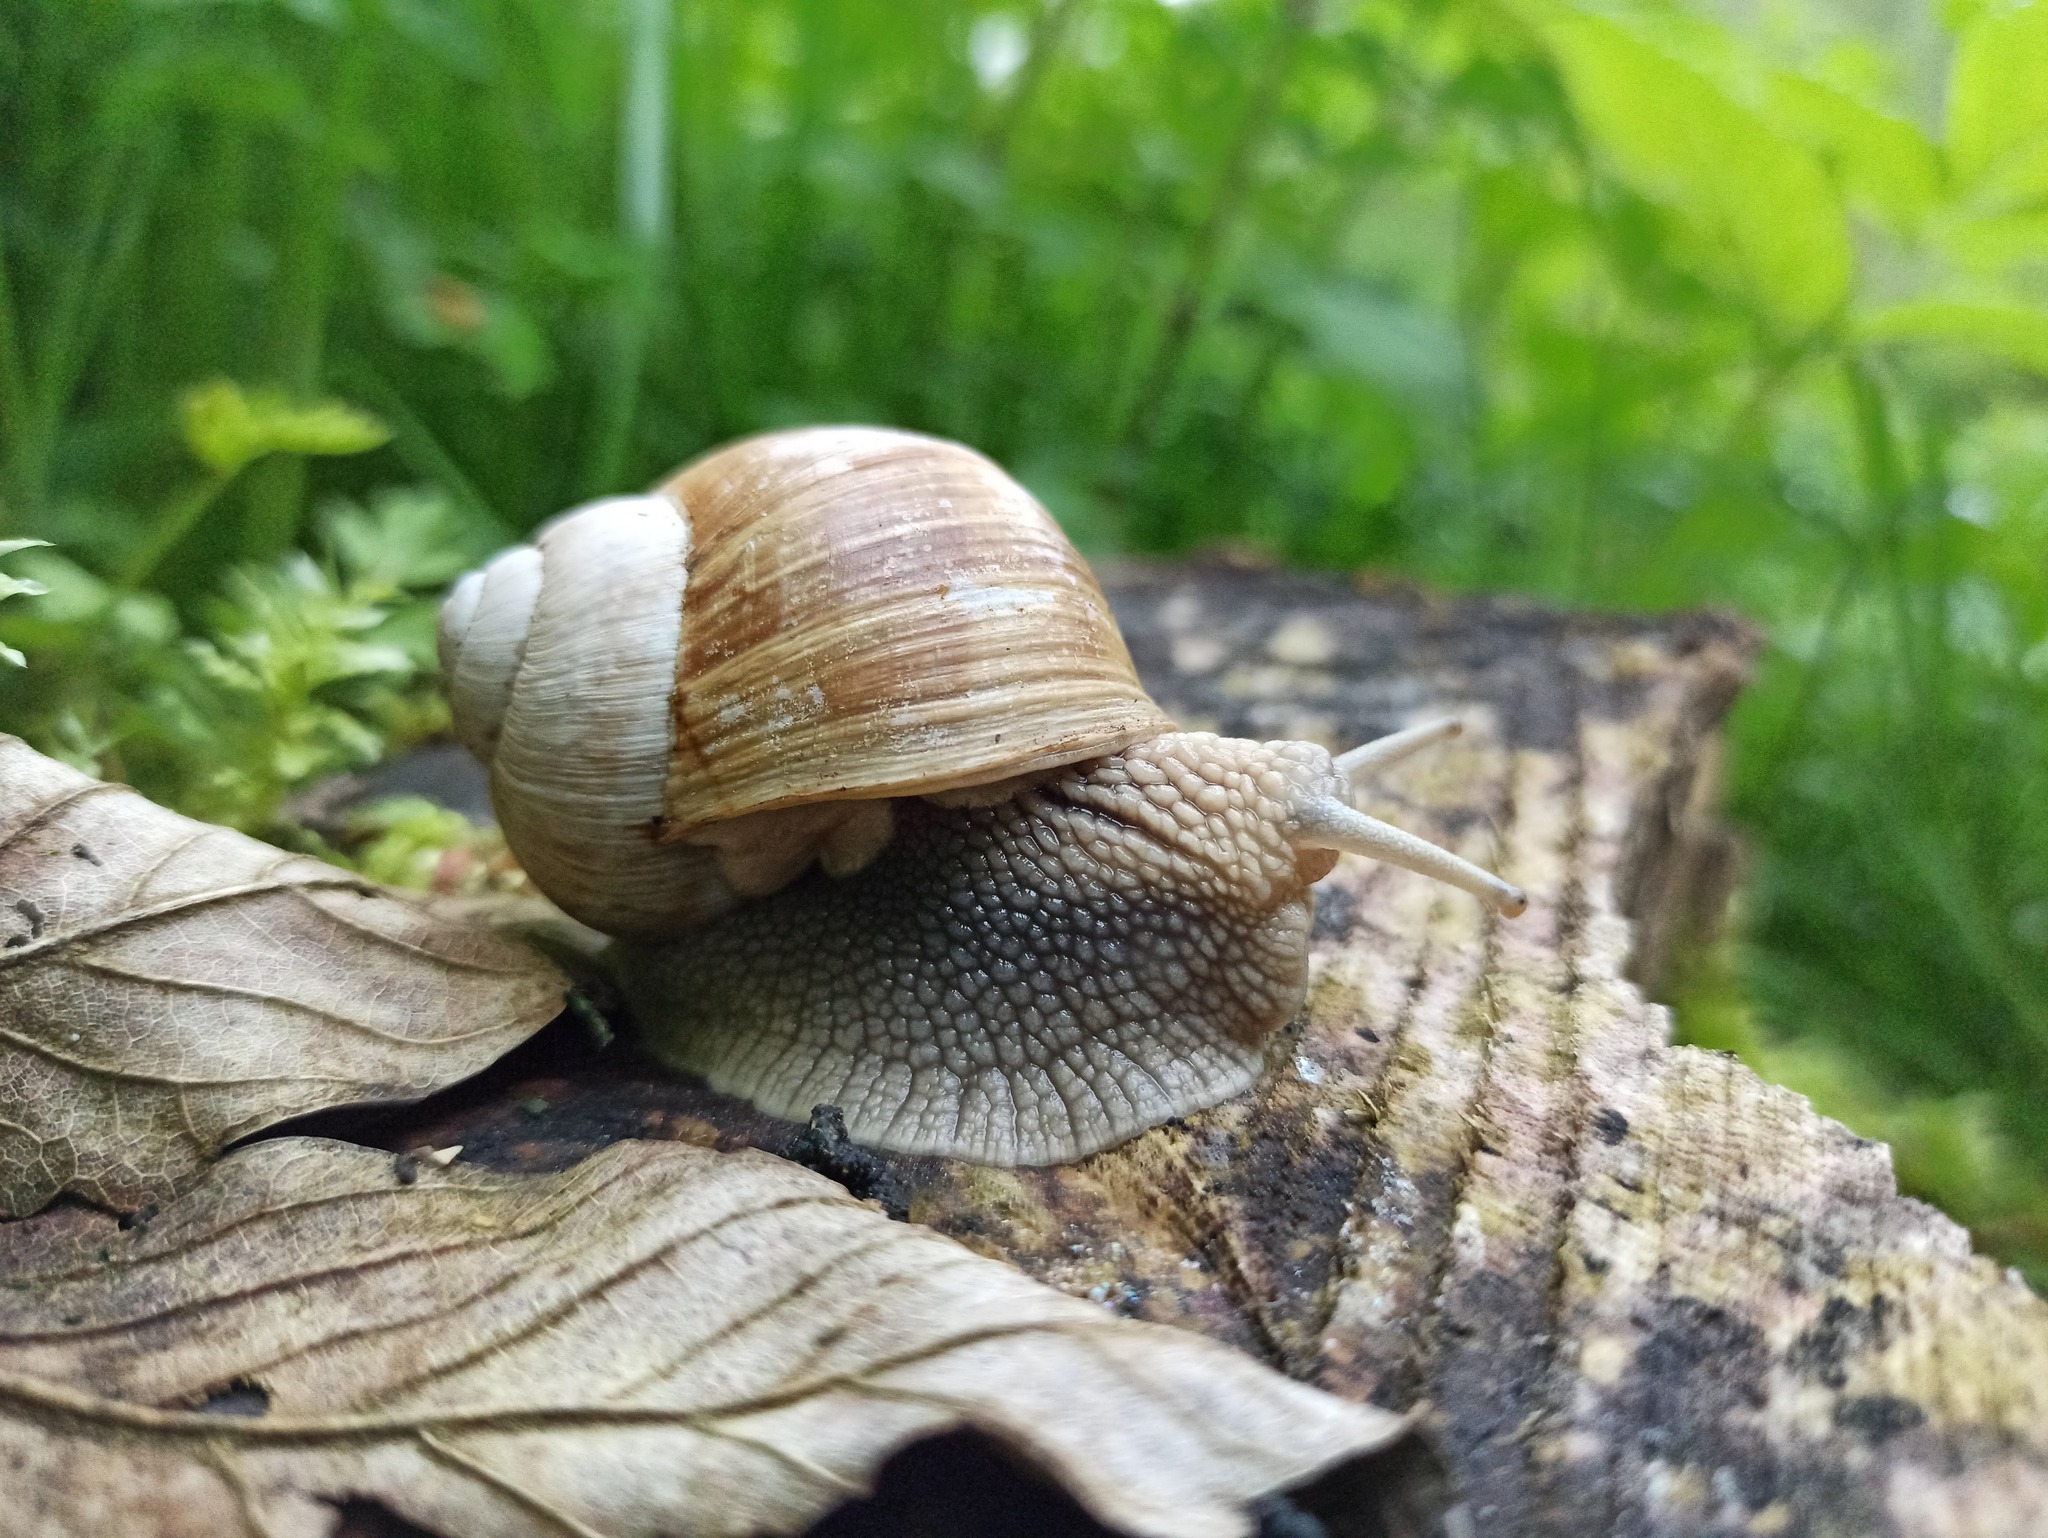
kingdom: Animalia
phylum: Mollusca
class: Gastropoda
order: Stylommatophora
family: Helicidae
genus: Helix
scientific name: Helix pomatia
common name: Roman snail
